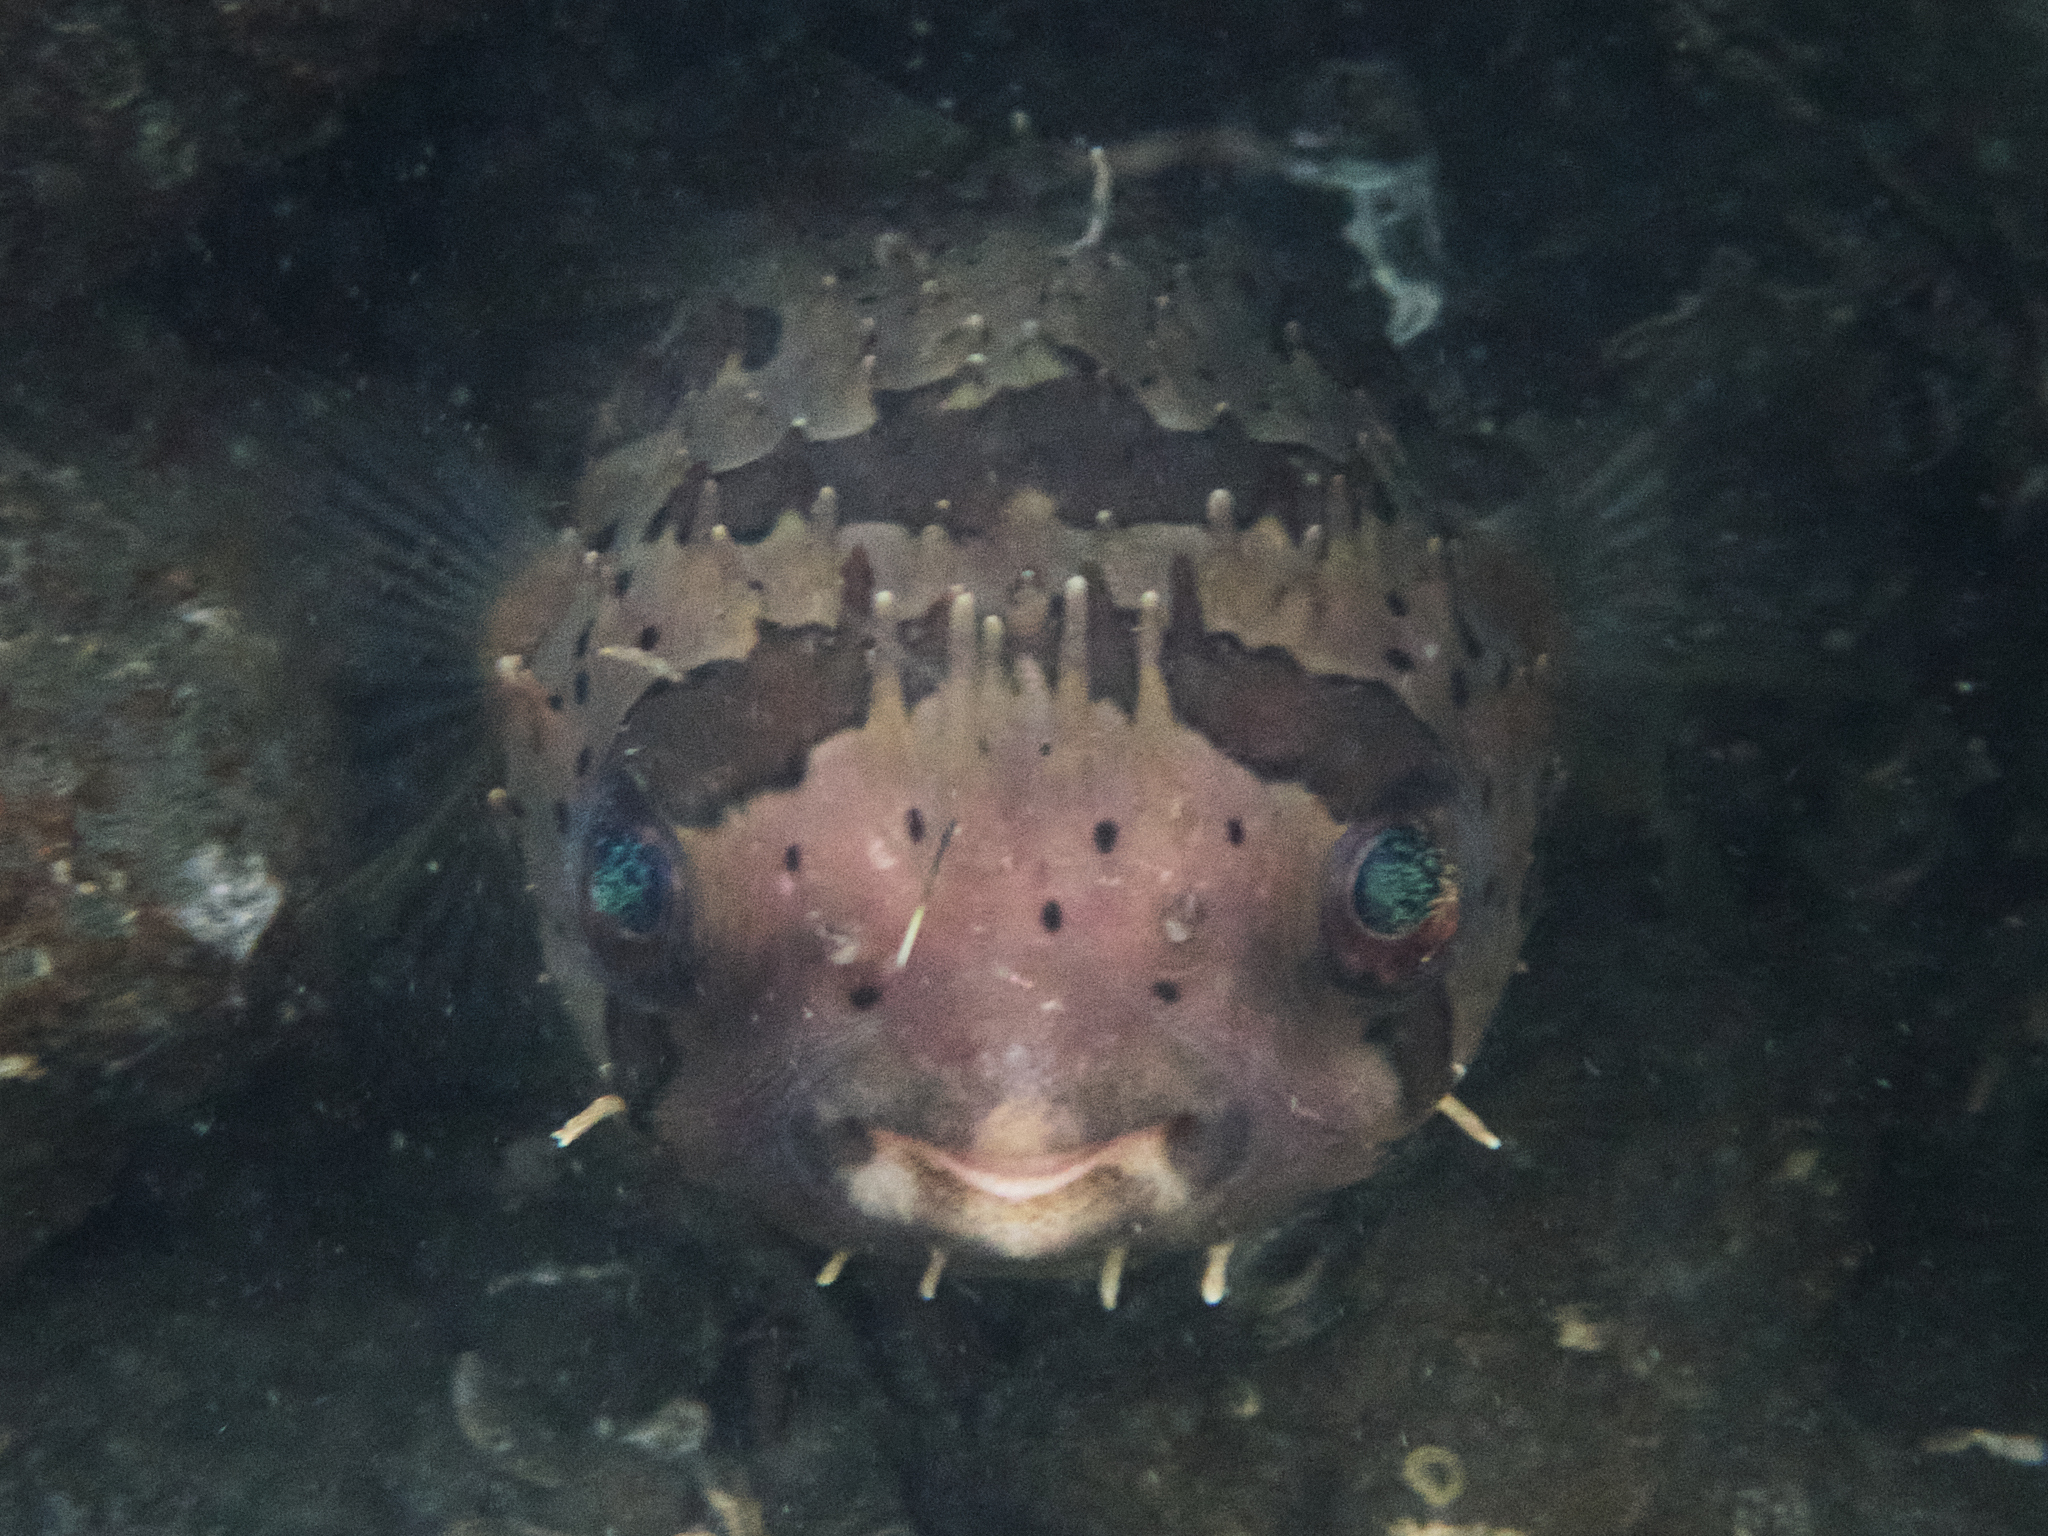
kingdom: Animalia
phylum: Chordata
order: Tetraodontiformes
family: Diodontidae
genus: Diodon
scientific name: Diodon holocanthus
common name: Balloonfish
